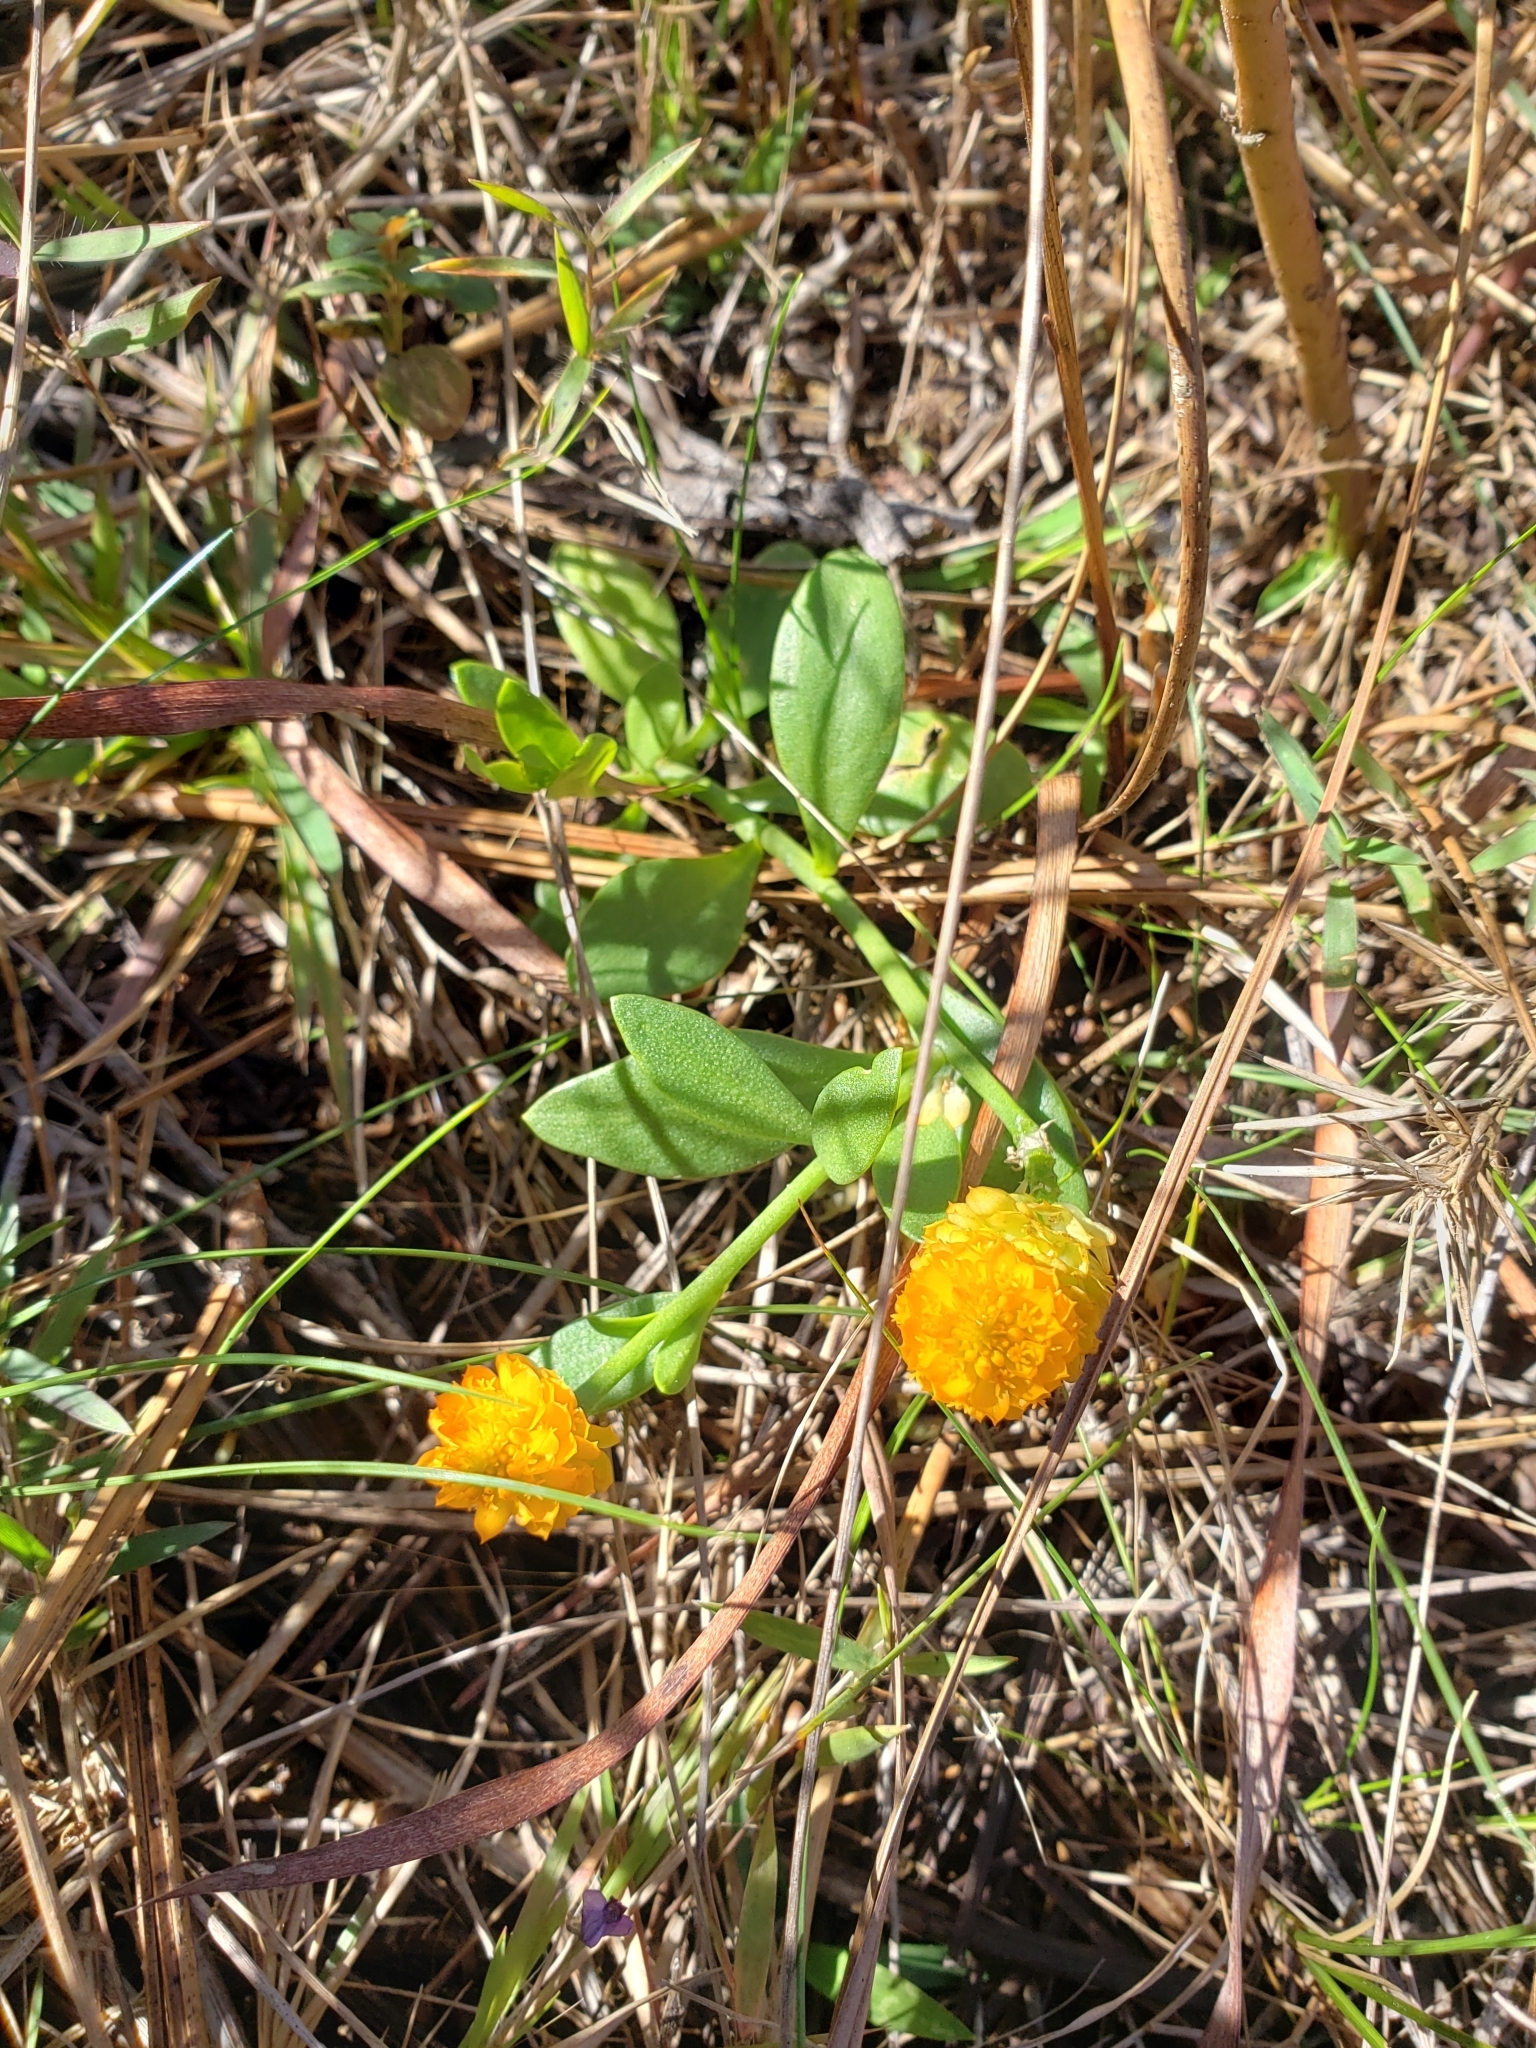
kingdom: Plantae
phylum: Tracheophyta
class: Magnoliopsida
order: Fabales
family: Polygalaceae
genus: Polygala
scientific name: Polygala lutea
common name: Orange milkwort
